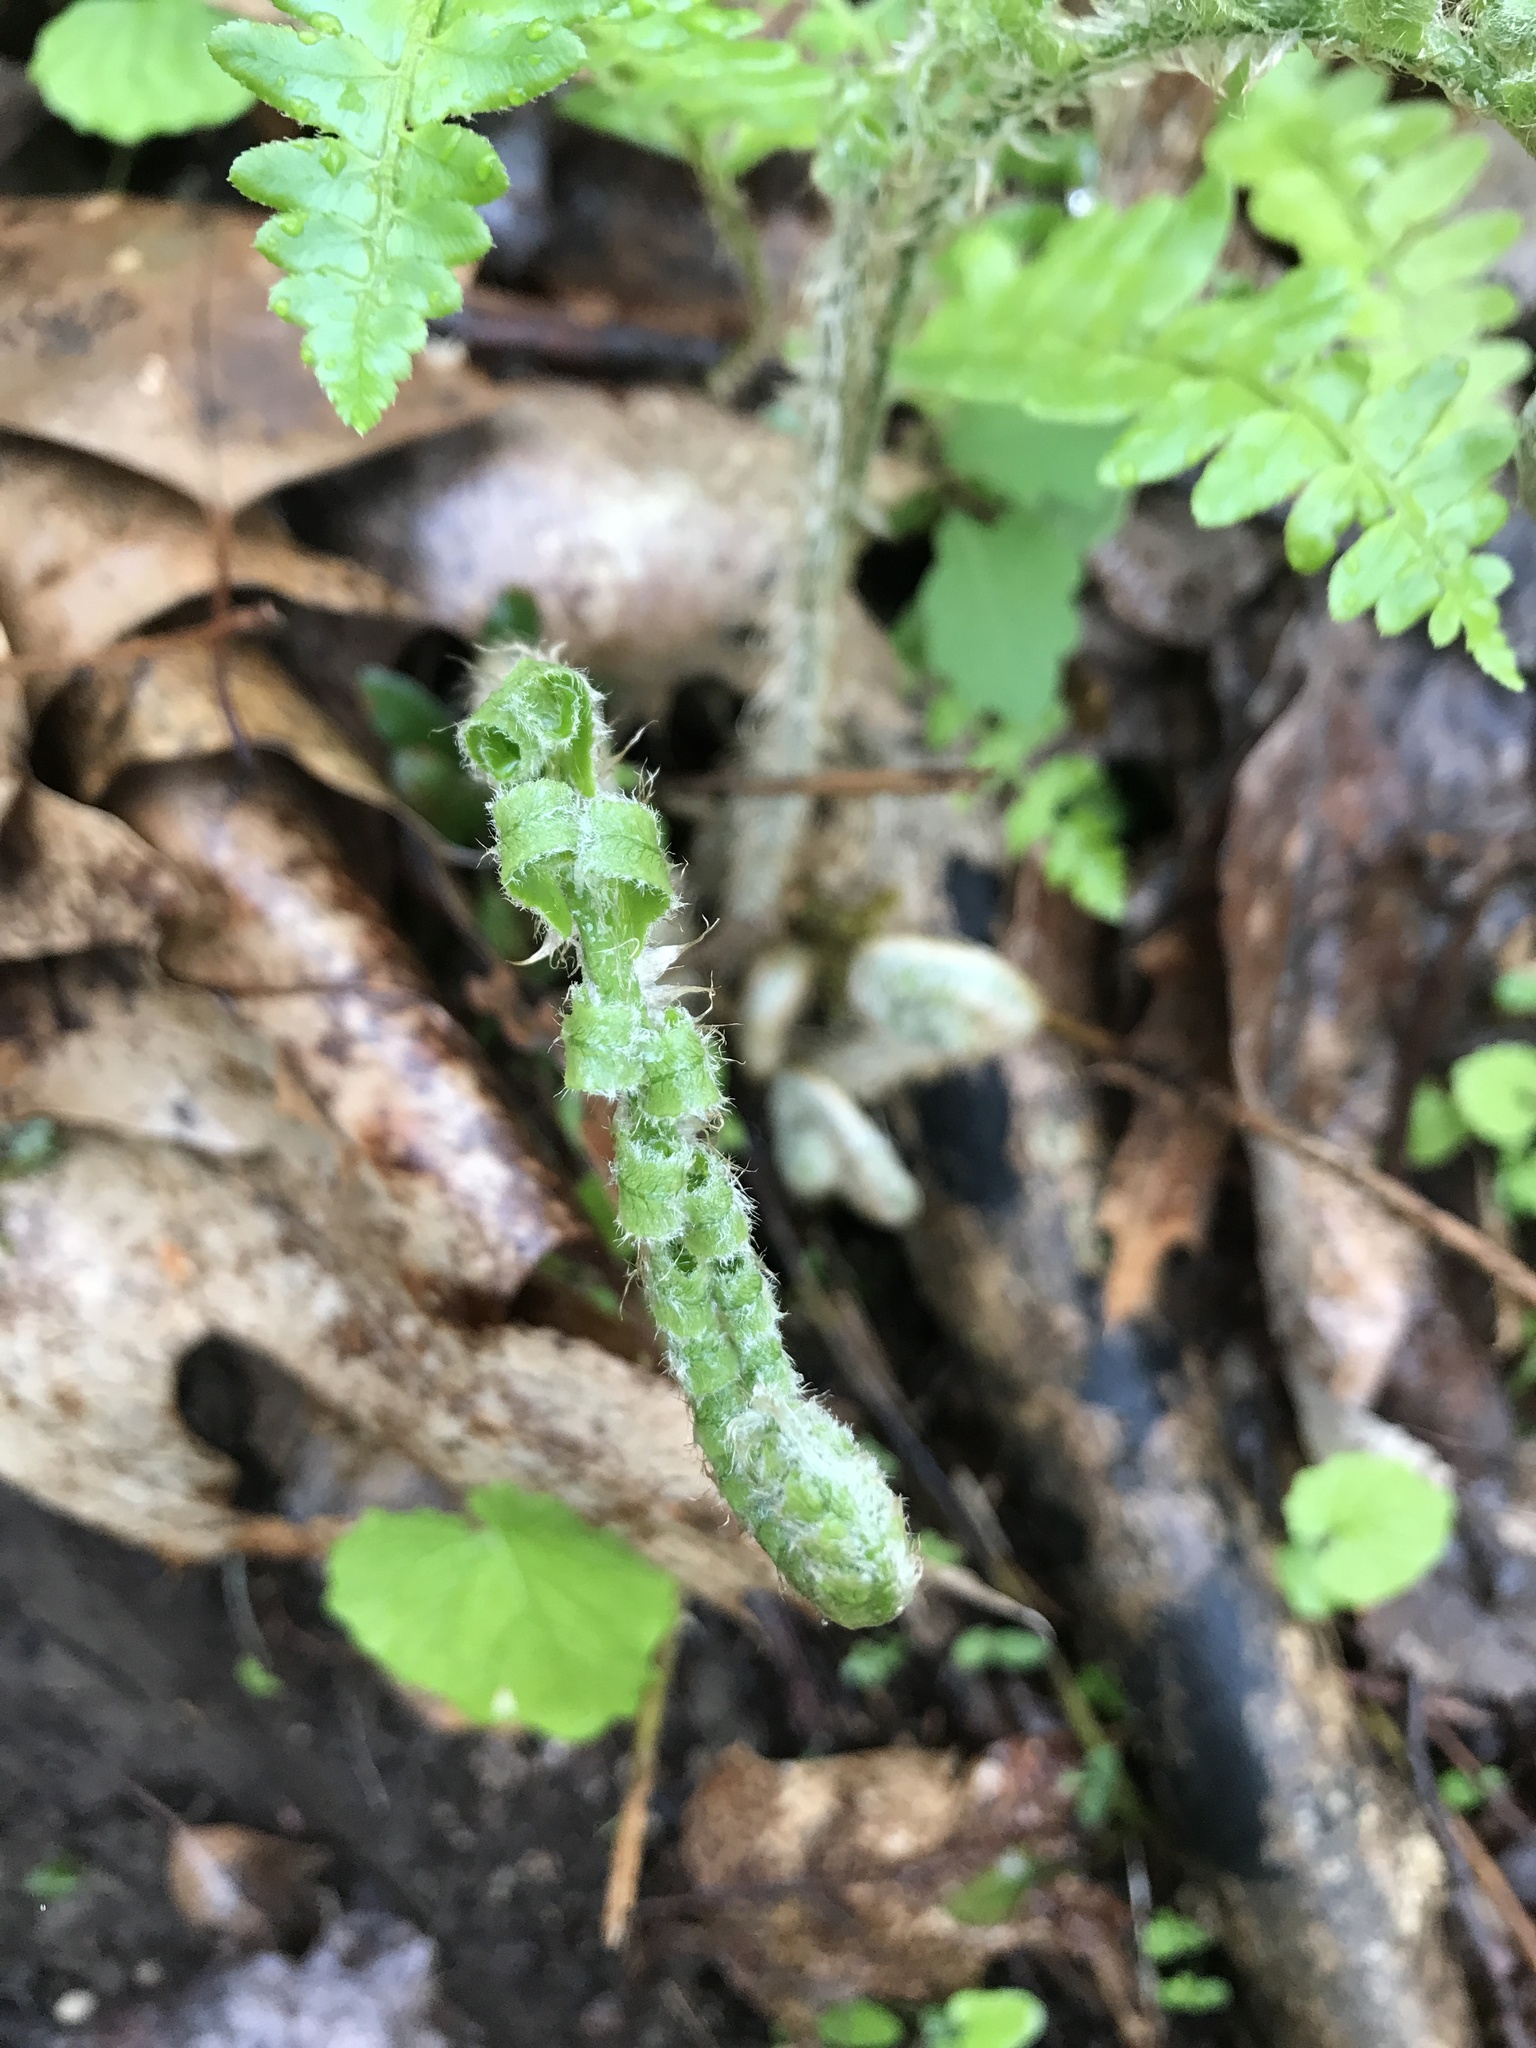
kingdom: Plantae
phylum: Tracheophyta
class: Polypodiopsida
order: Polypodiales
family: Dryopteridaceae
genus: Polystichum
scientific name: Polystichum acrostichoides
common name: Christmas fern
